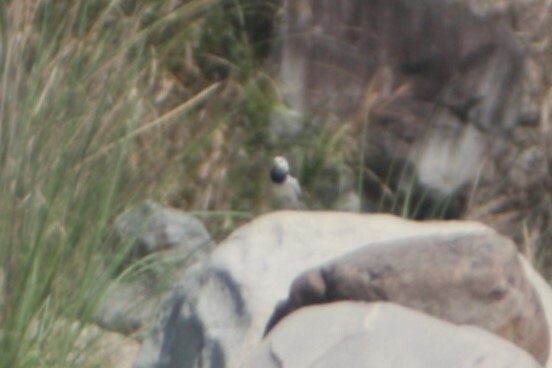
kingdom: Animalia
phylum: Chordata
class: Aves
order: Passeriformes
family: Motacillidae
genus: Motacilla
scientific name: Motacilla alba
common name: White wagtail
